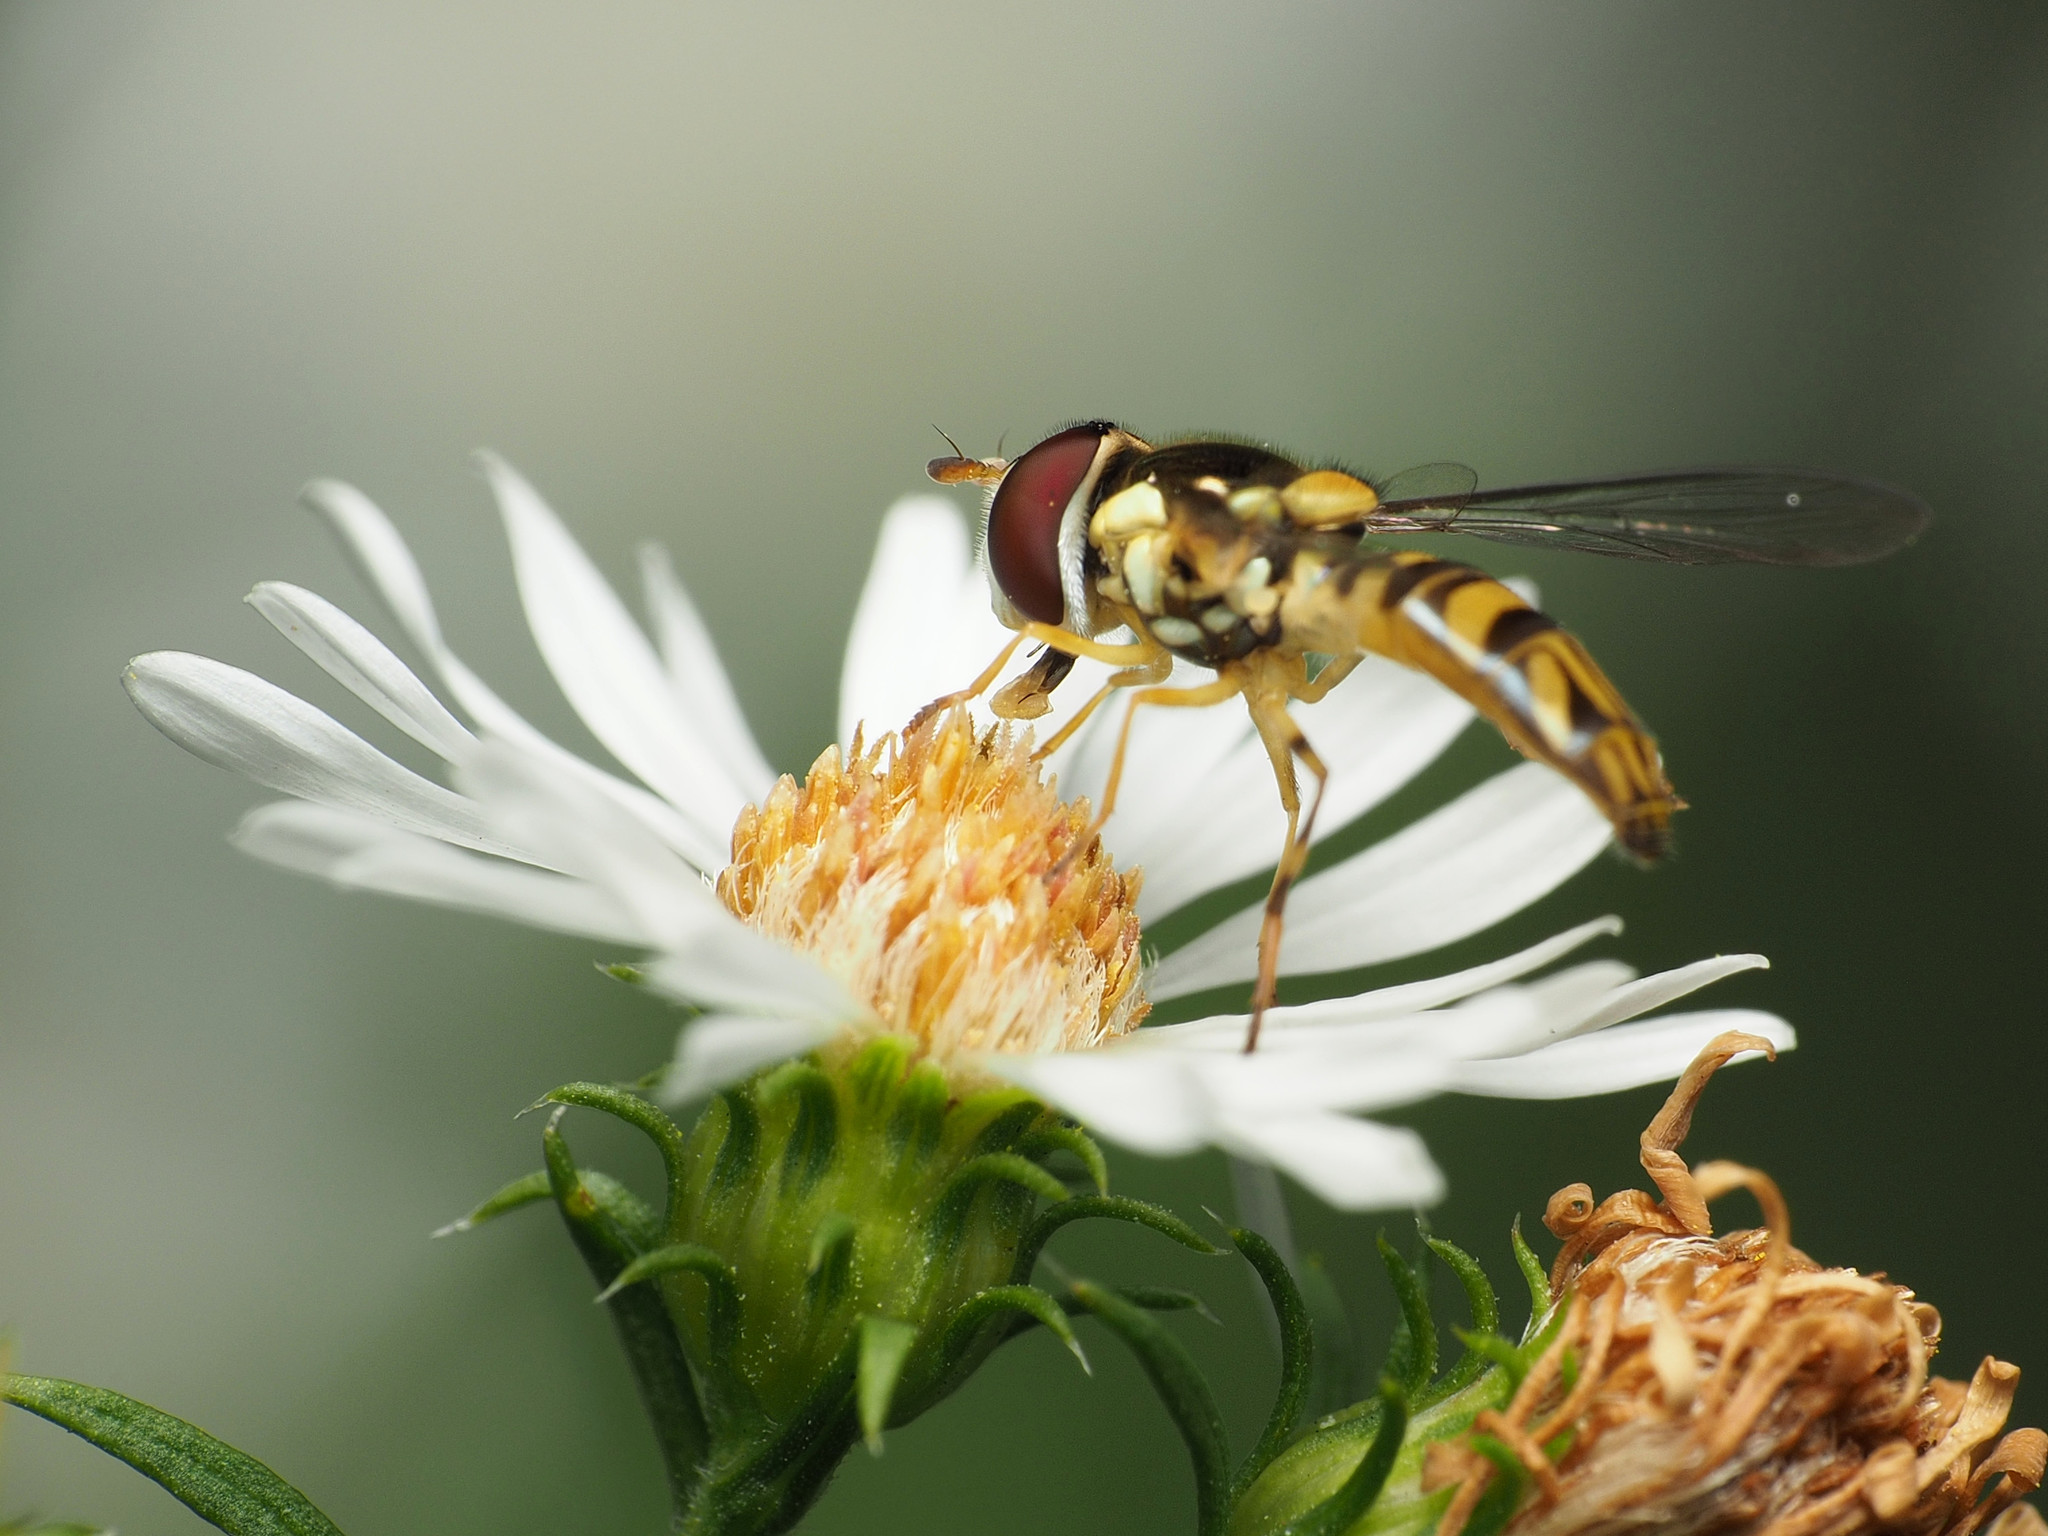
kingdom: Animalia
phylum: Arthropoda
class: Insecta
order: Diptera
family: Syrphidae
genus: Allograpta
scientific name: Allograpta obliqua
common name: Common oblique syrphid
